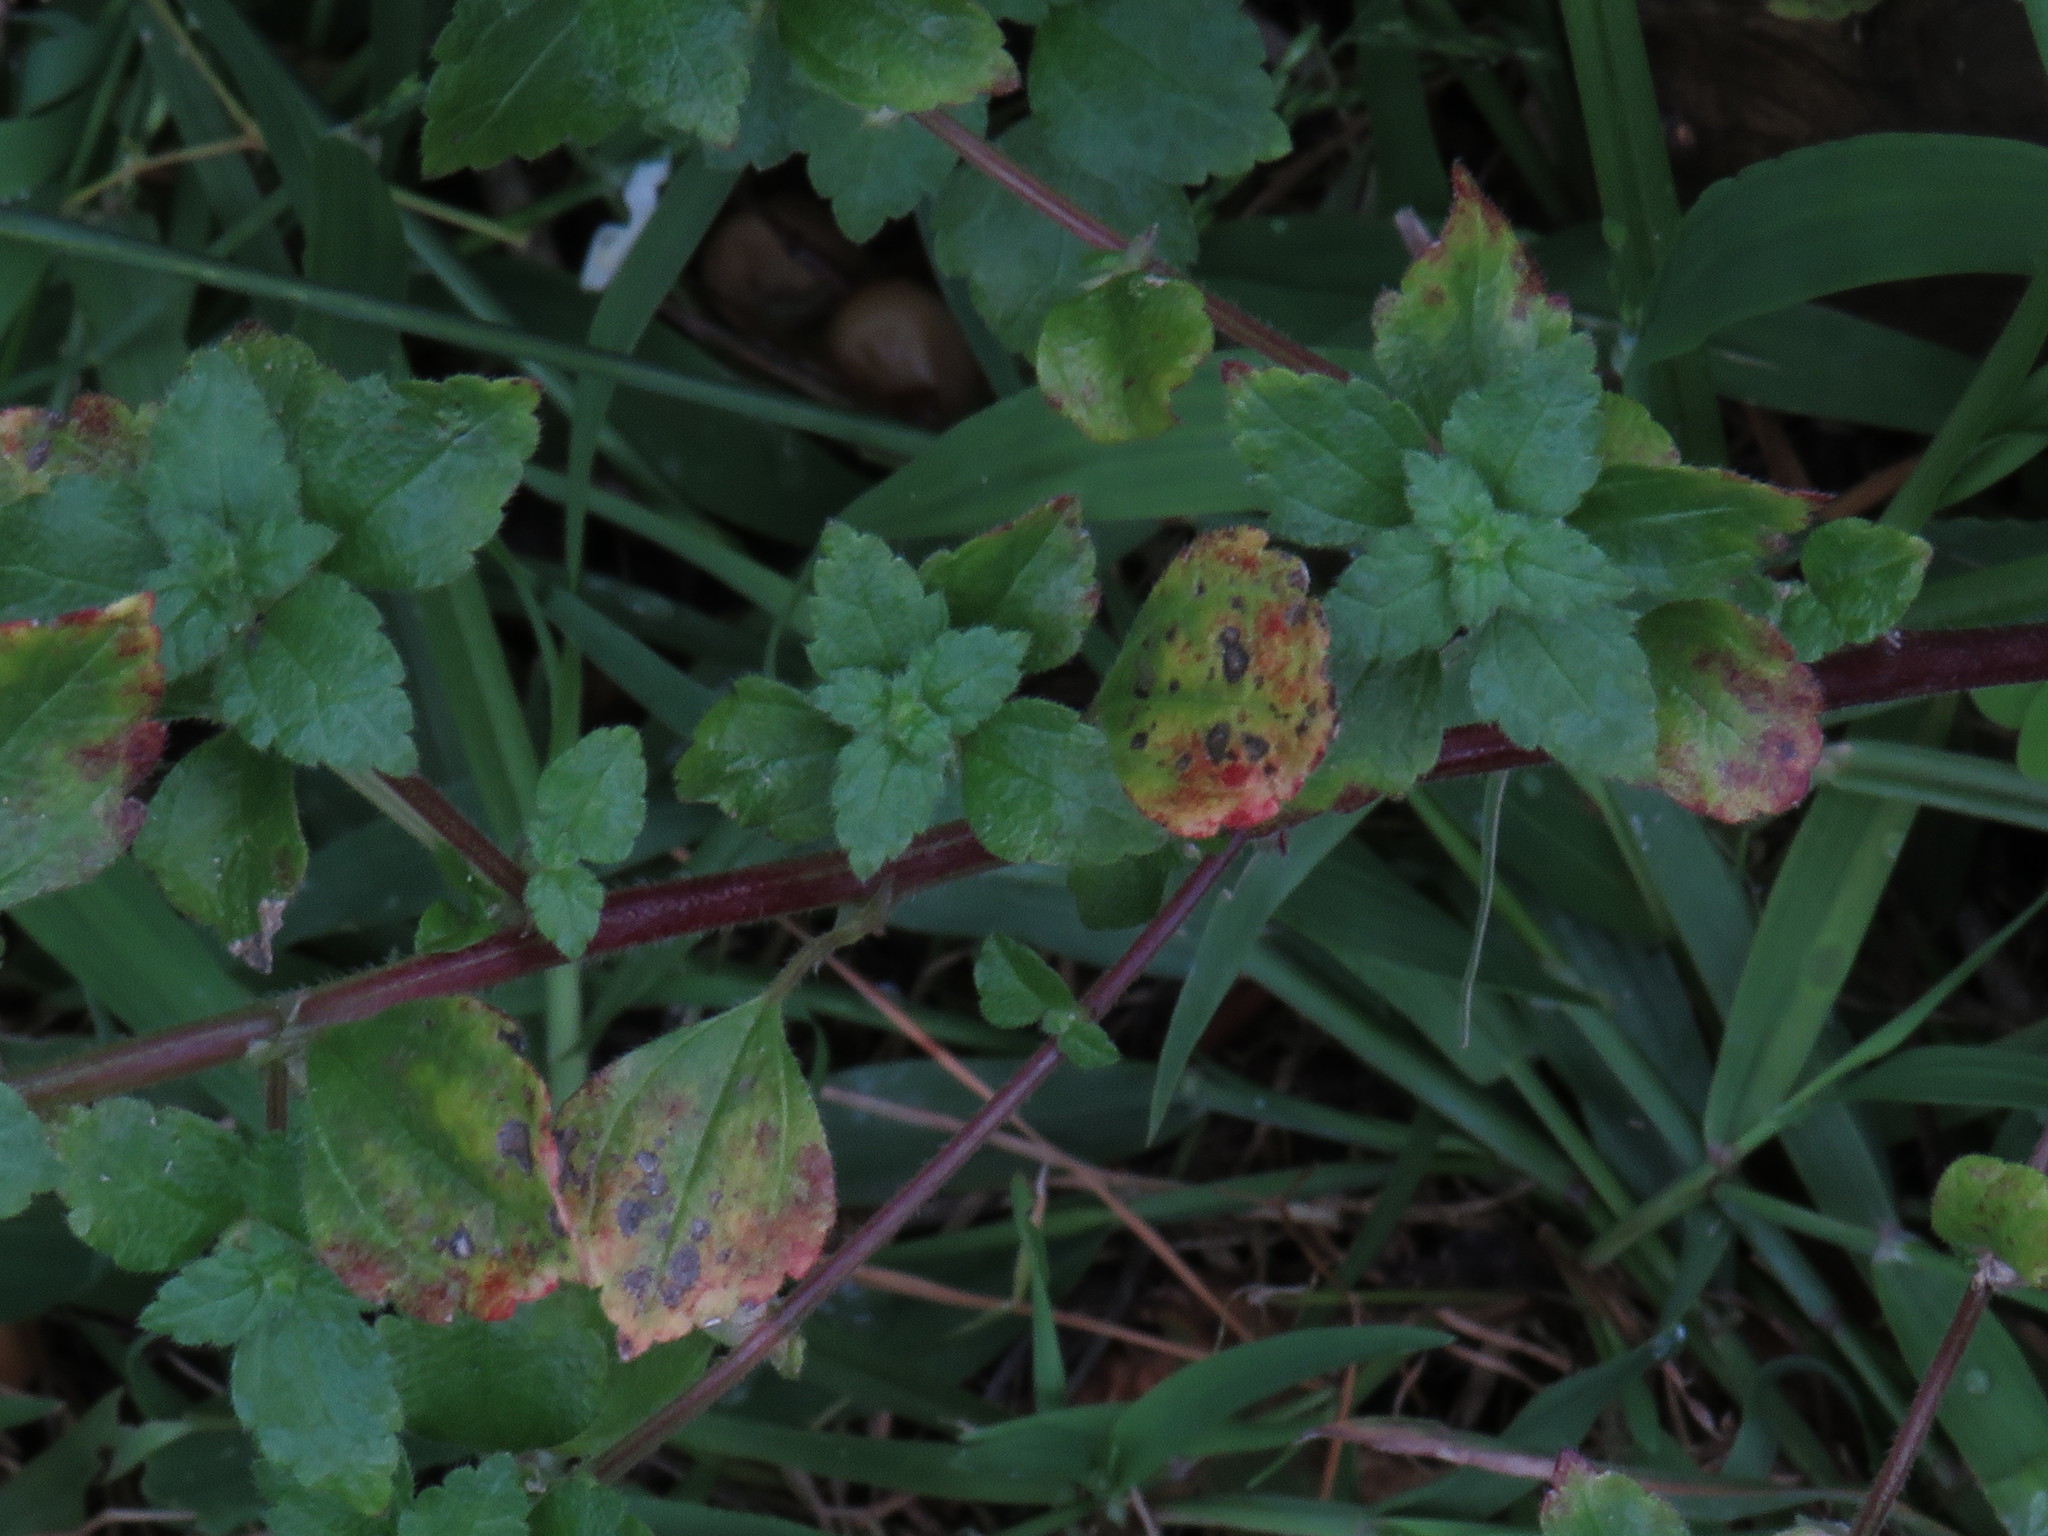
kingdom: Plantae
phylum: Tracheophyta
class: Magnoliopsida
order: Rosales
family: Urticaceae
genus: Didymodoxa
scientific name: Didymodoxa capensis
